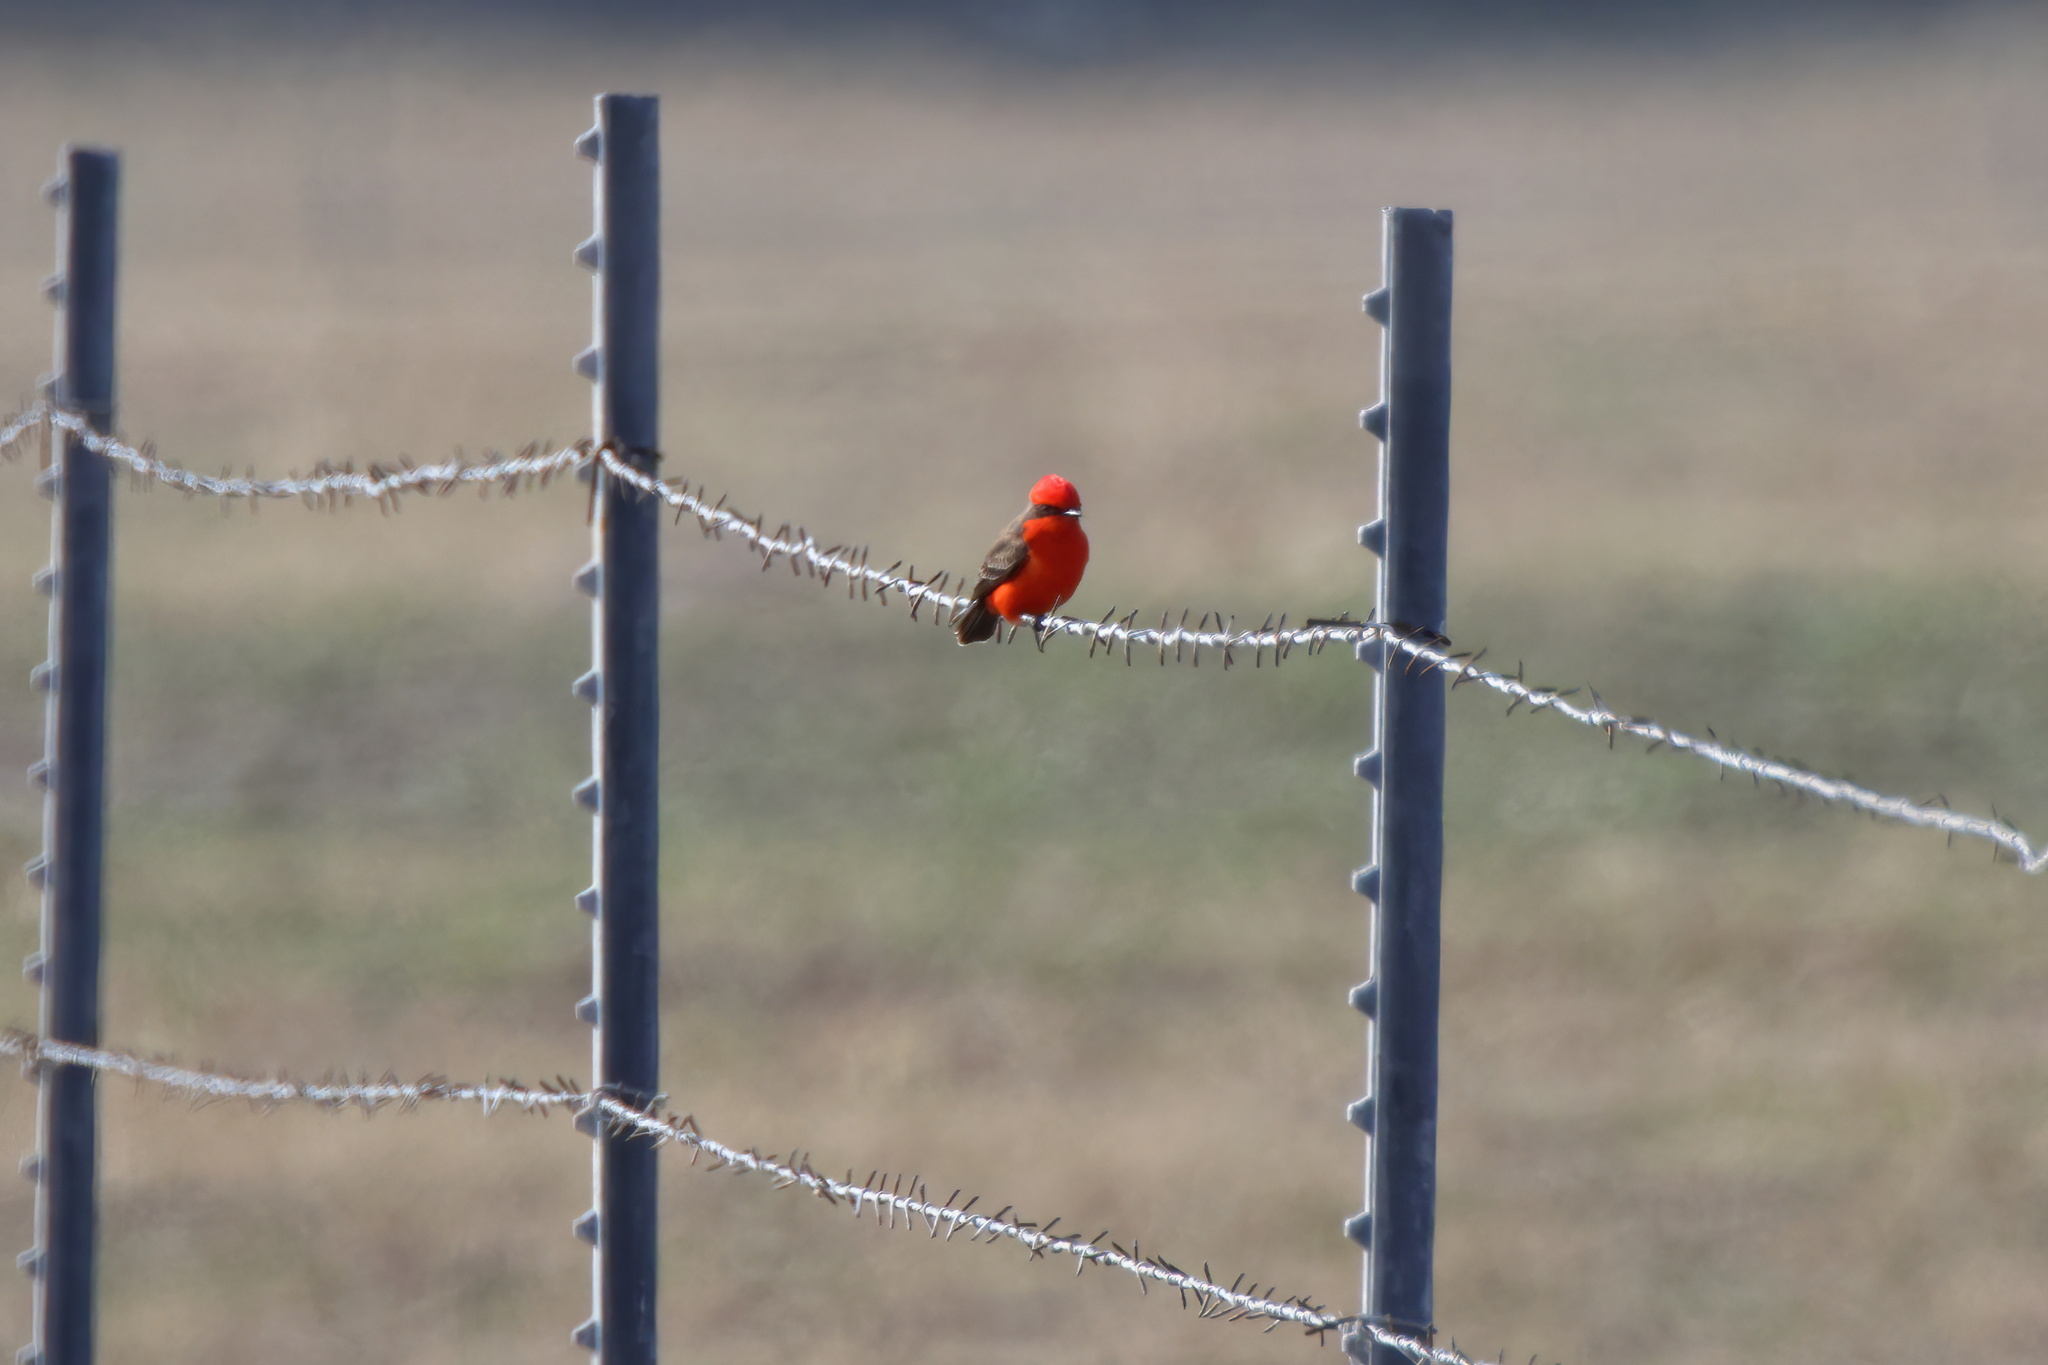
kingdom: Animalia
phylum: Chordata
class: Aves
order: Passeriformes
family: Tyrannidae
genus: Pyrocephalus
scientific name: Pyrocephalus rubinus
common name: Vermilion flycatcher
